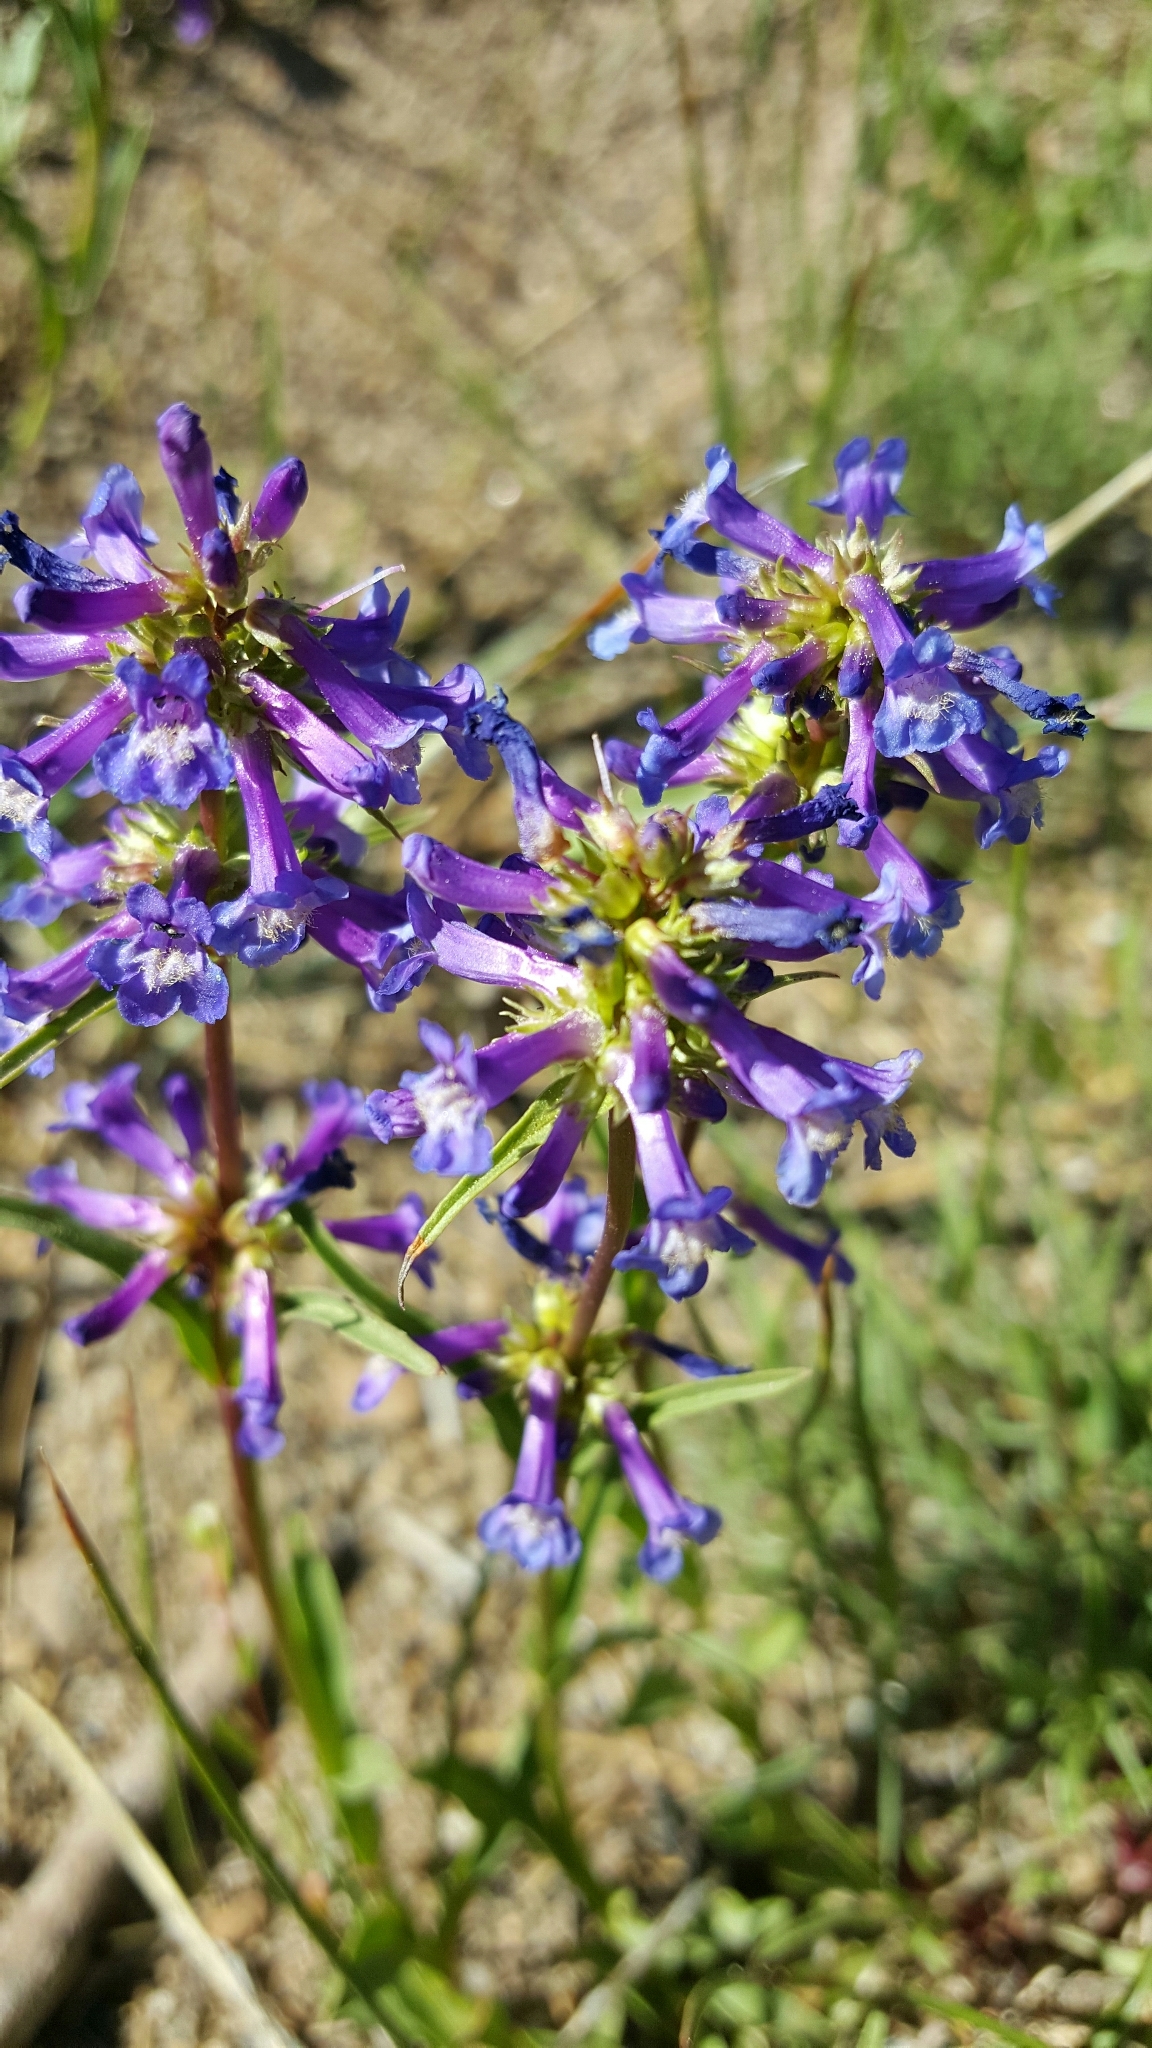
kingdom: Plantae
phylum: Tracheophyta
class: Magnoliopsida
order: Lamiales
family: Plantaginaceae
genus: Penstemon
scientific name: Penstemon heterodoxus
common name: Sierran penstemon
